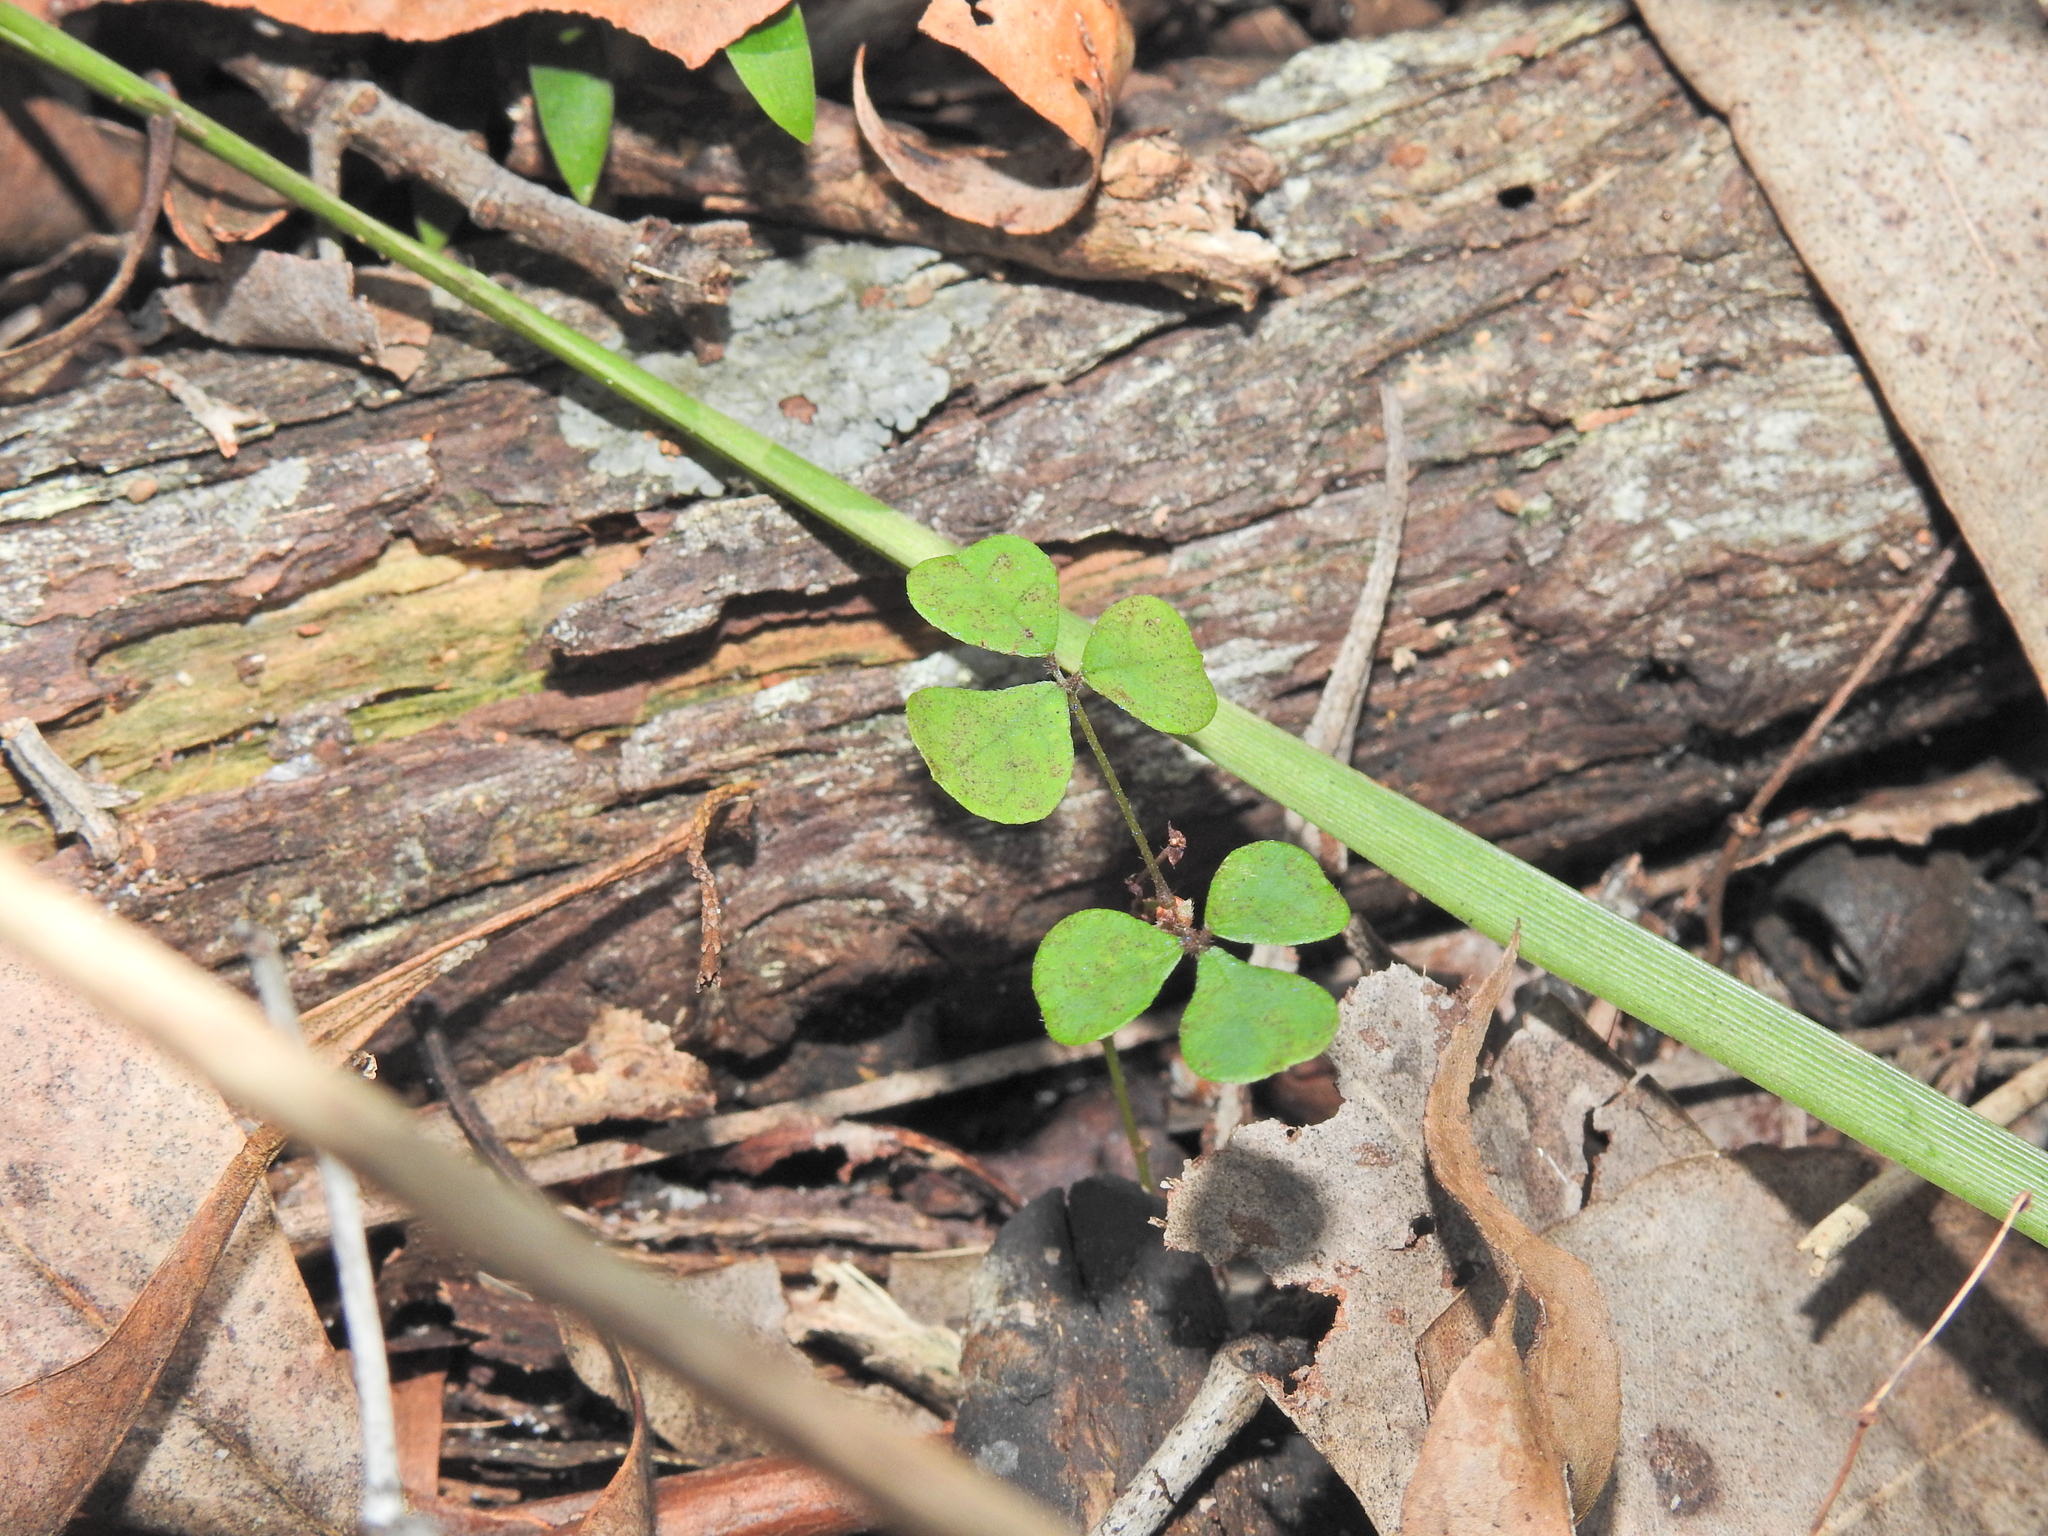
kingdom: Plantae
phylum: Tracheophyta
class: Magnoliopsida
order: Fabales
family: Fabaceae
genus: Pullenia
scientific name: Pullenia gunnii
